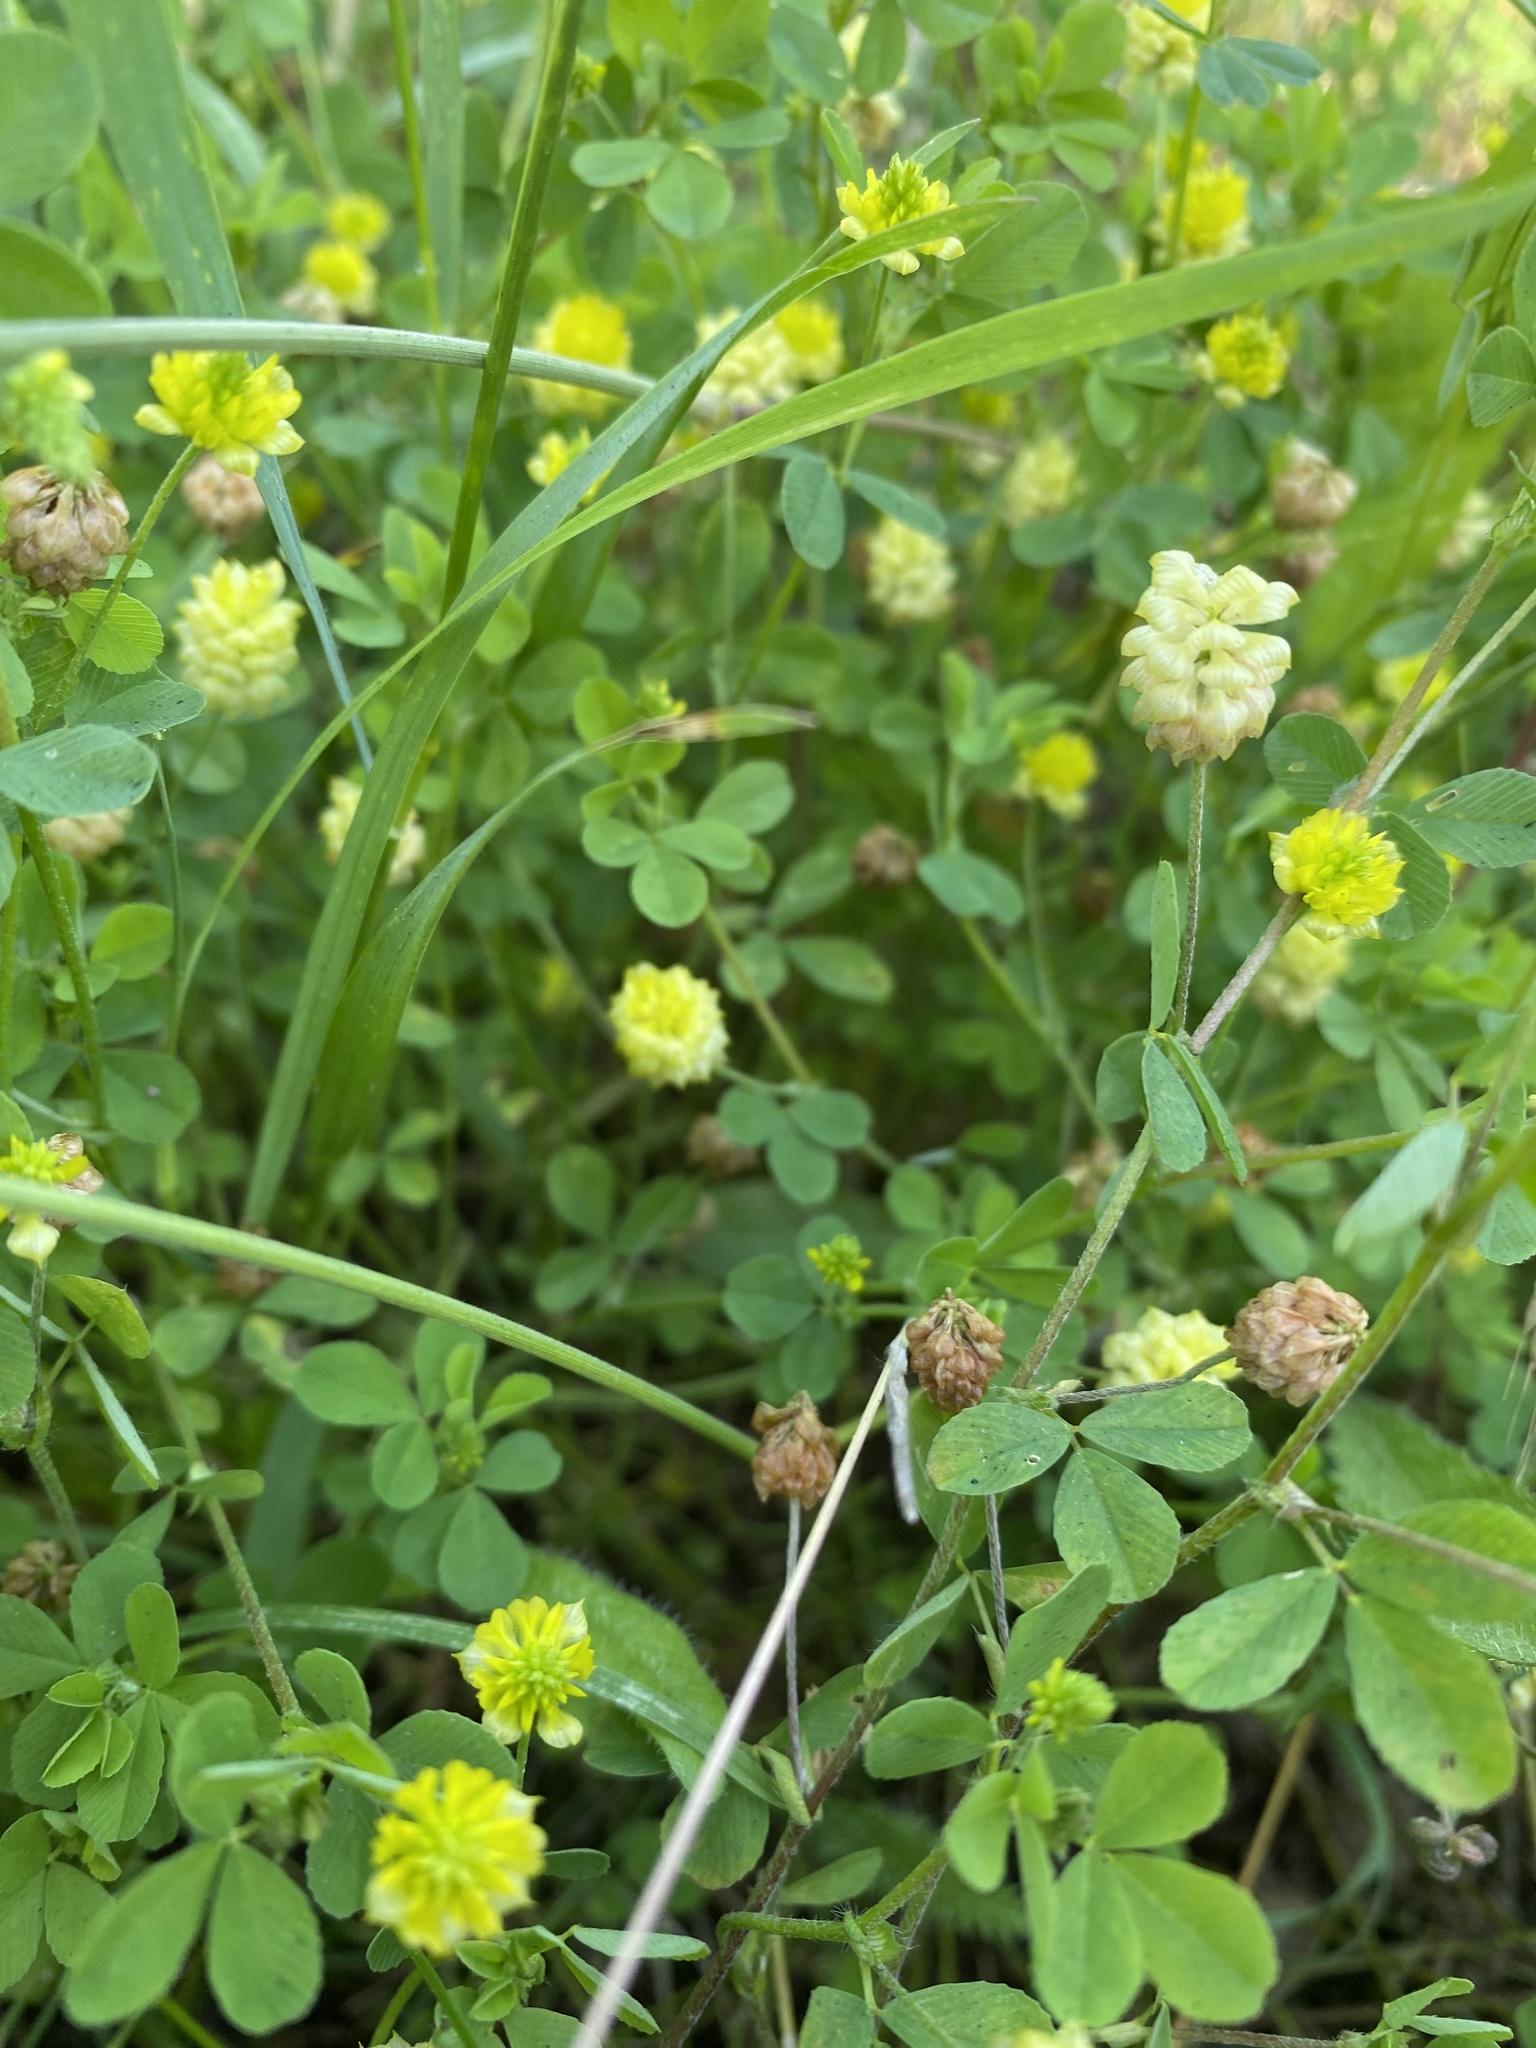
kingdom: Plantae
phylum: Tracheophyta
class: Magnoliopsida
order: Fabales
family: Fabaceae
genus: Trifolium
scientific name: Trifolium campestre
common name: Field clover
